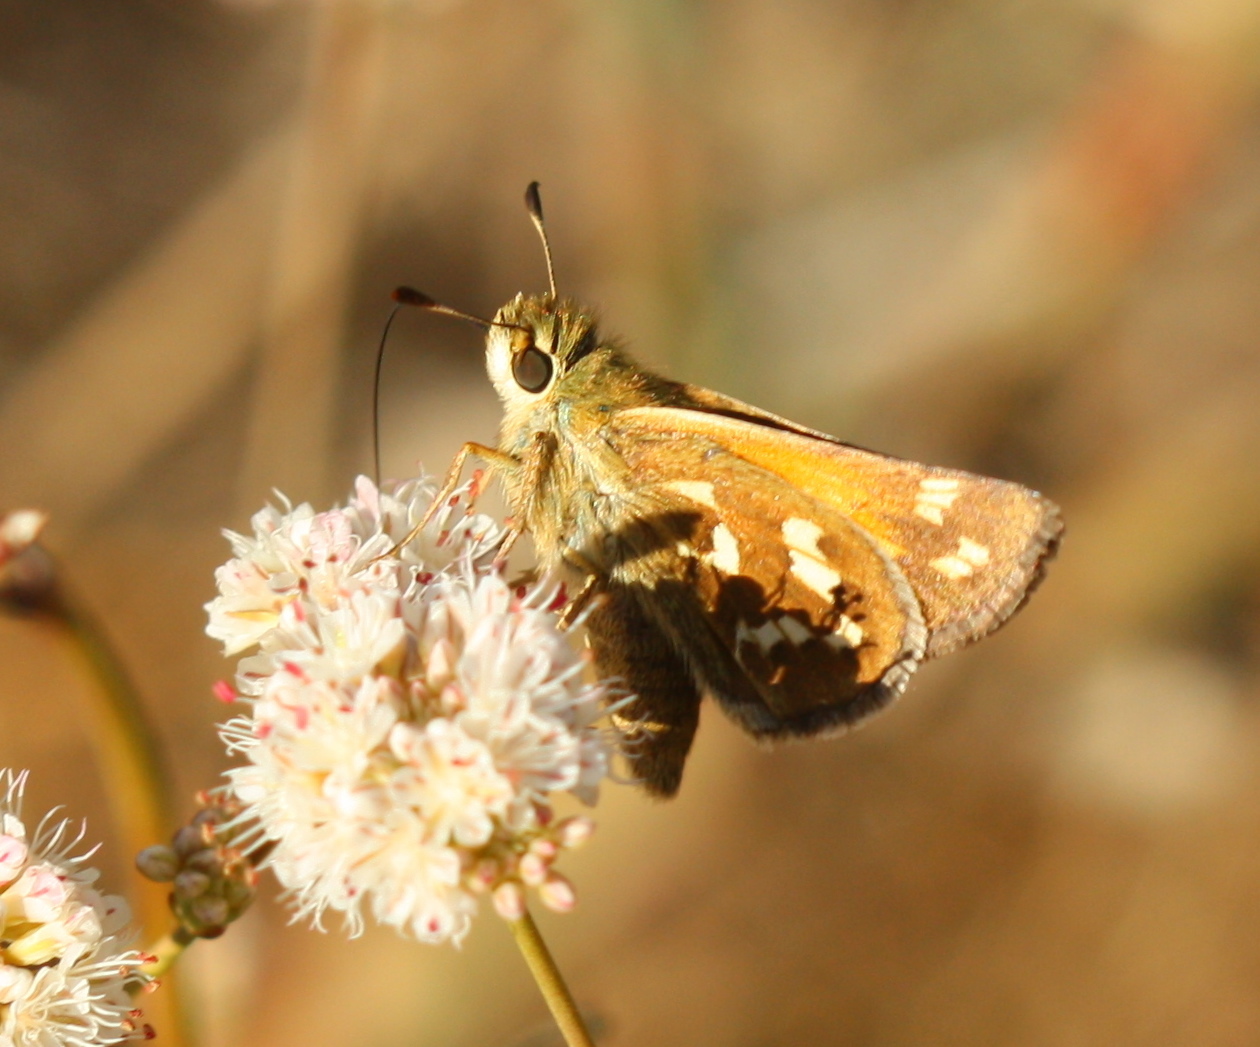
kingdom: Animalia
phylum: Arthropoda
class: Insecta
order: Lepidoptera
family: Hesperiidae
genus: Hesperia
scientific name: Hesperia comma
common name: Common branded skipper
